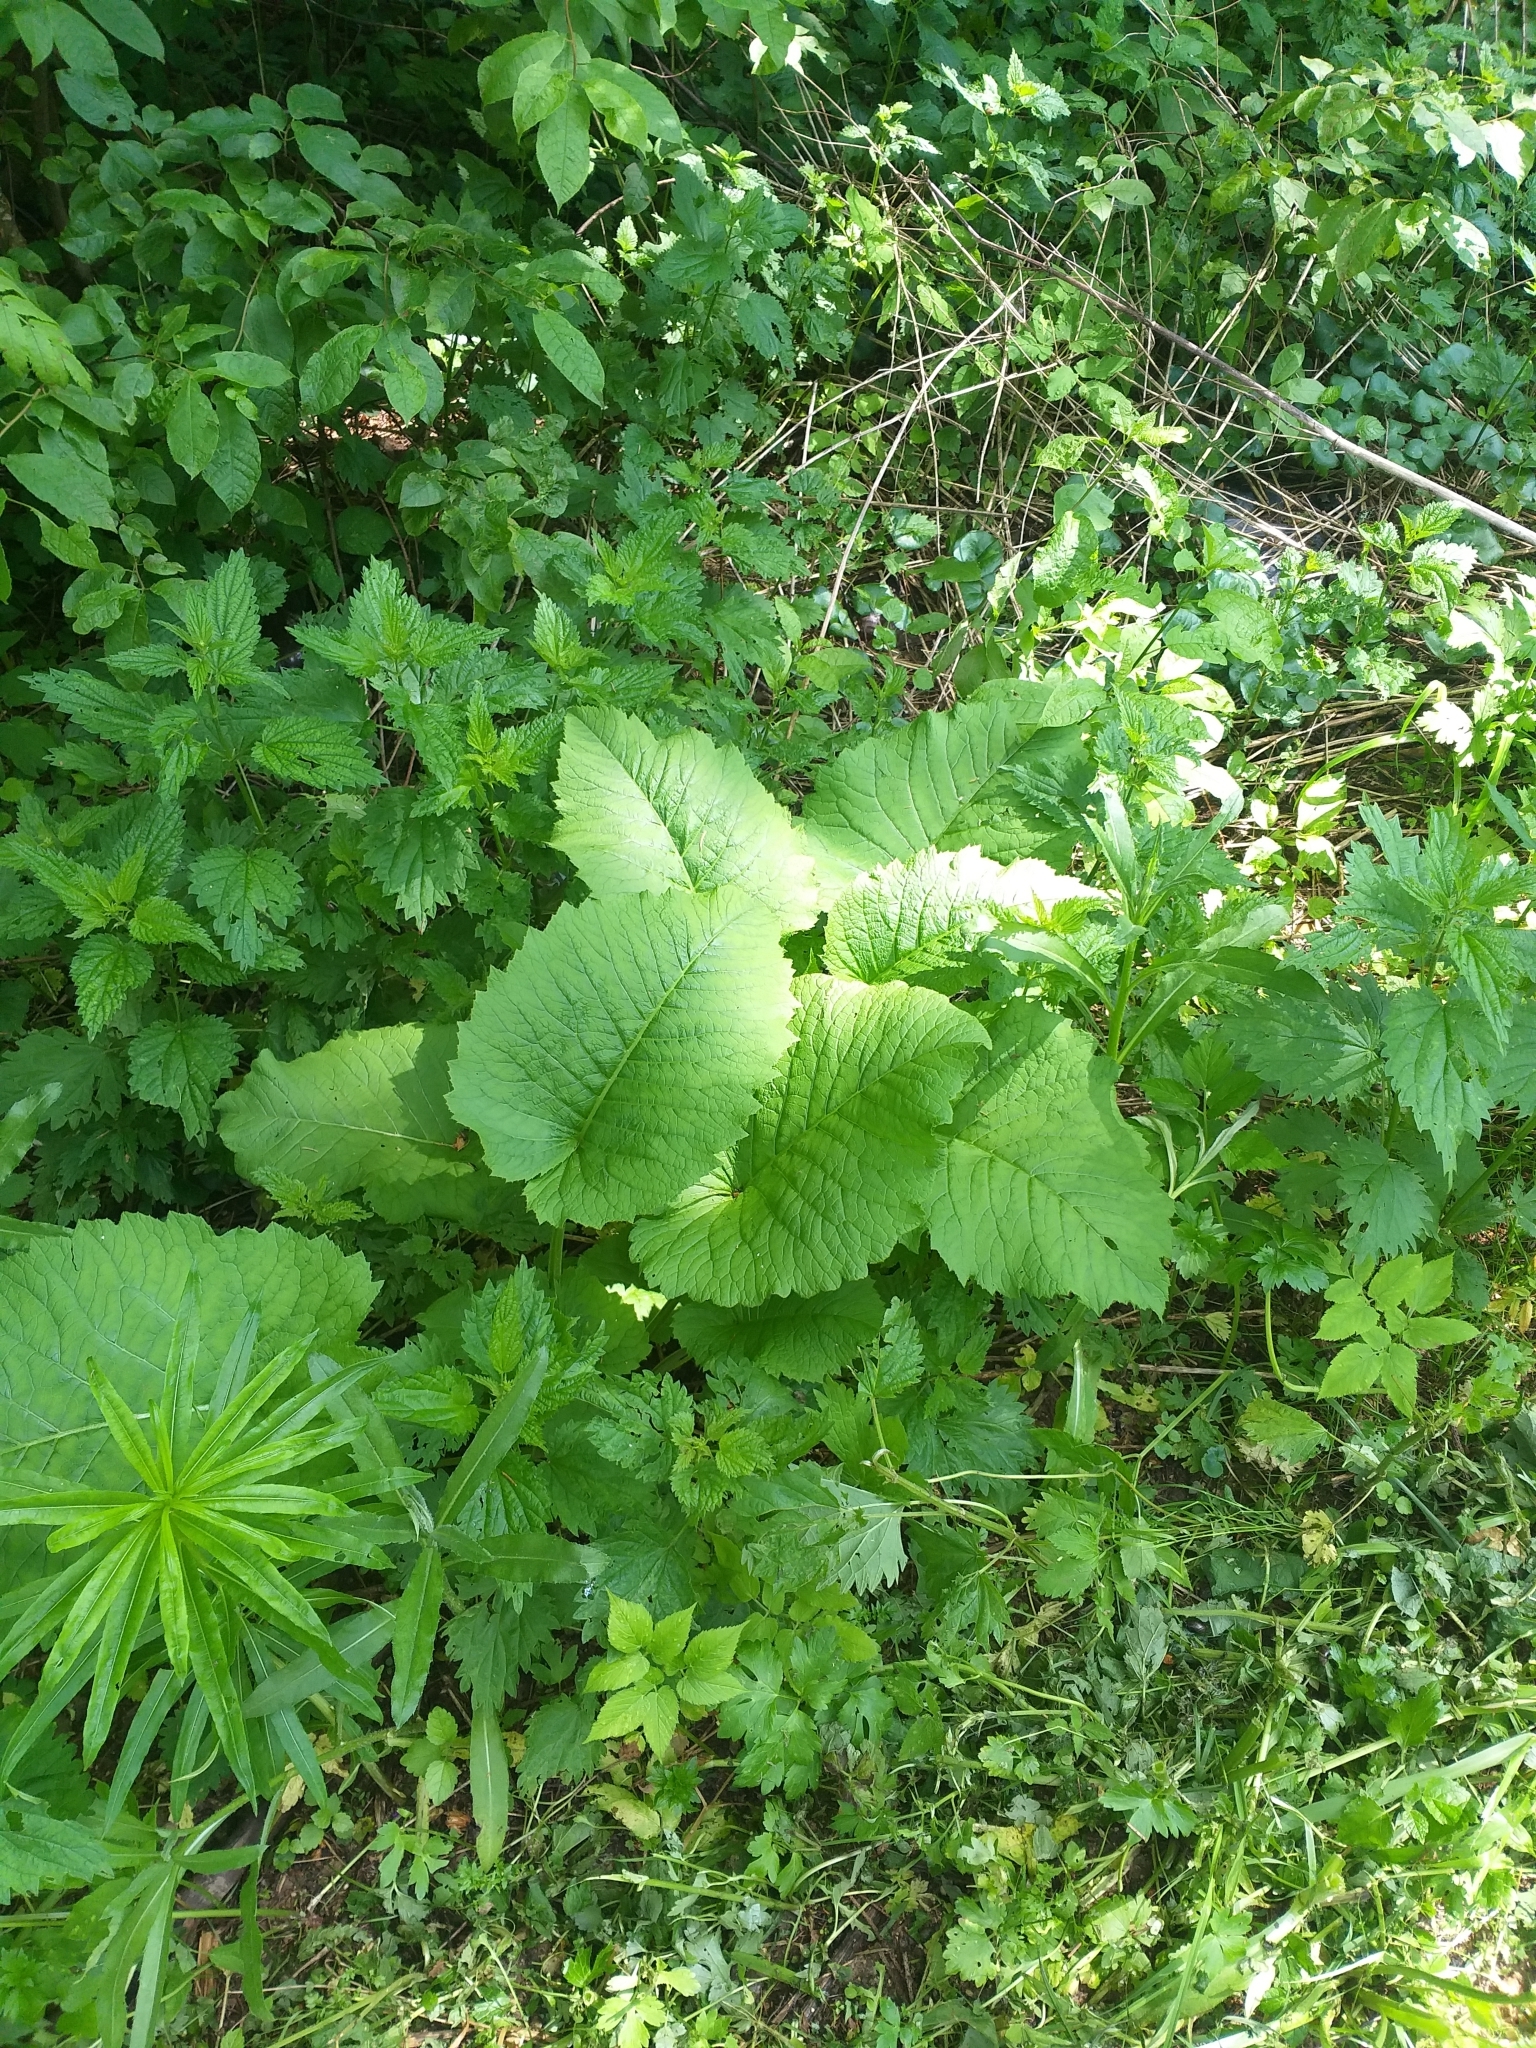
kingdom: Plantae
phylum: Tracheophyta
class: Magnoliopsida
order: Asterales
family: Asteraceae
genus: Telekia
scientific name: Telekia speciosa
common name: Yellow oxeye
